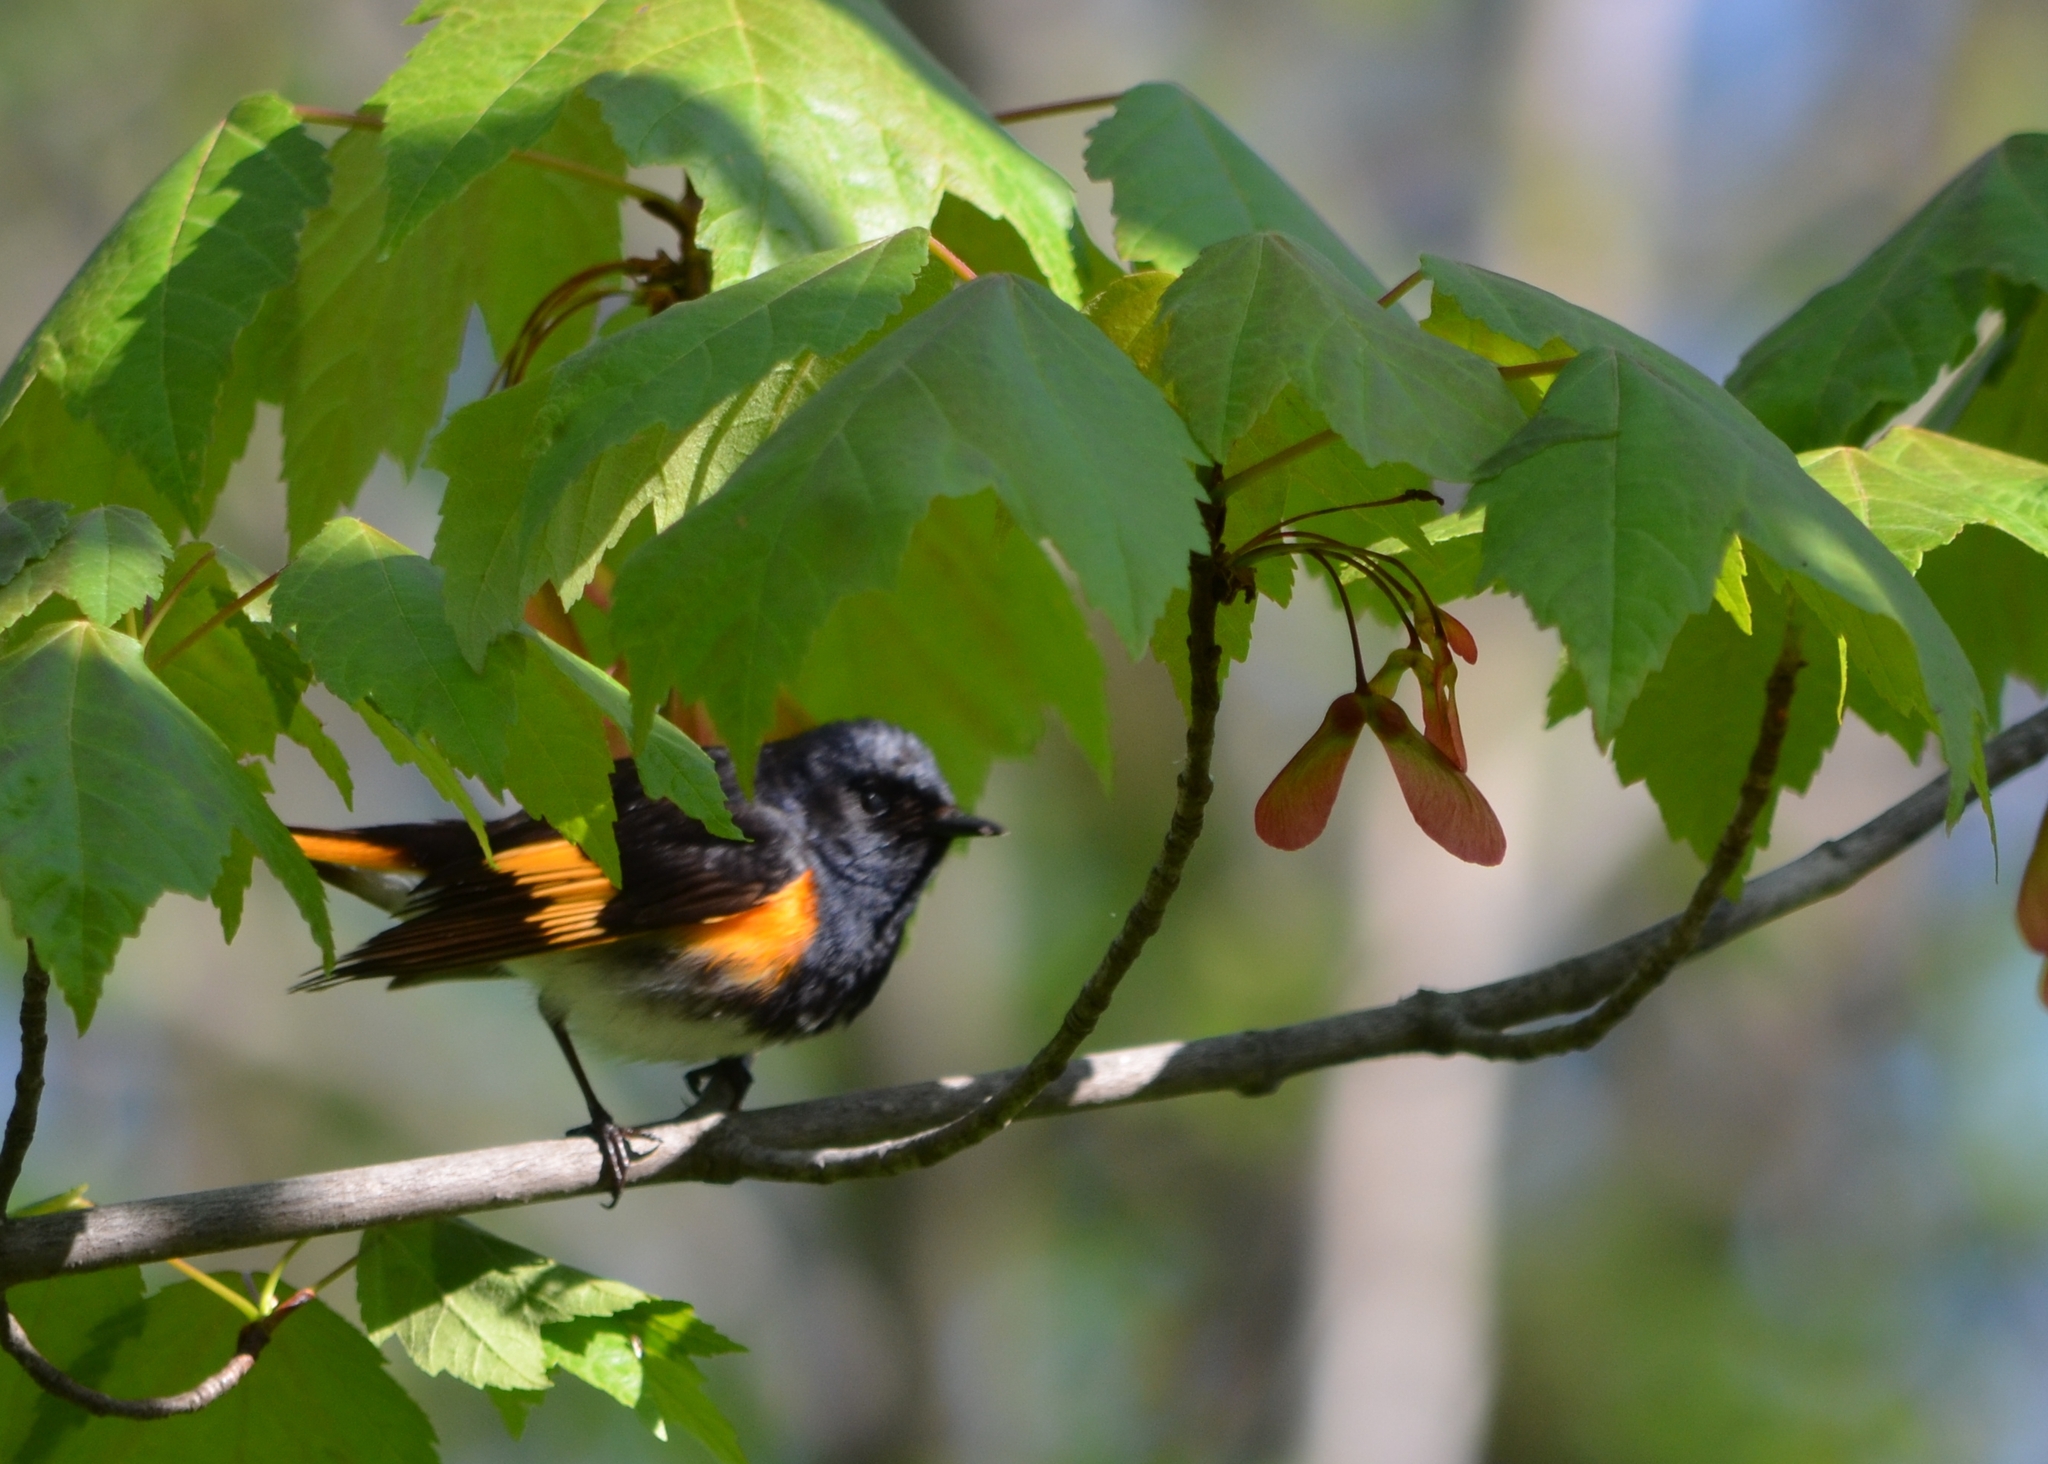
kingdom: Animalia
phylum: Chordata
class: Aves
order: Passeriformes
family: Parulidae
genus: Setophaga
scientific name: Setophaga ruticilla
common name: American redstart
